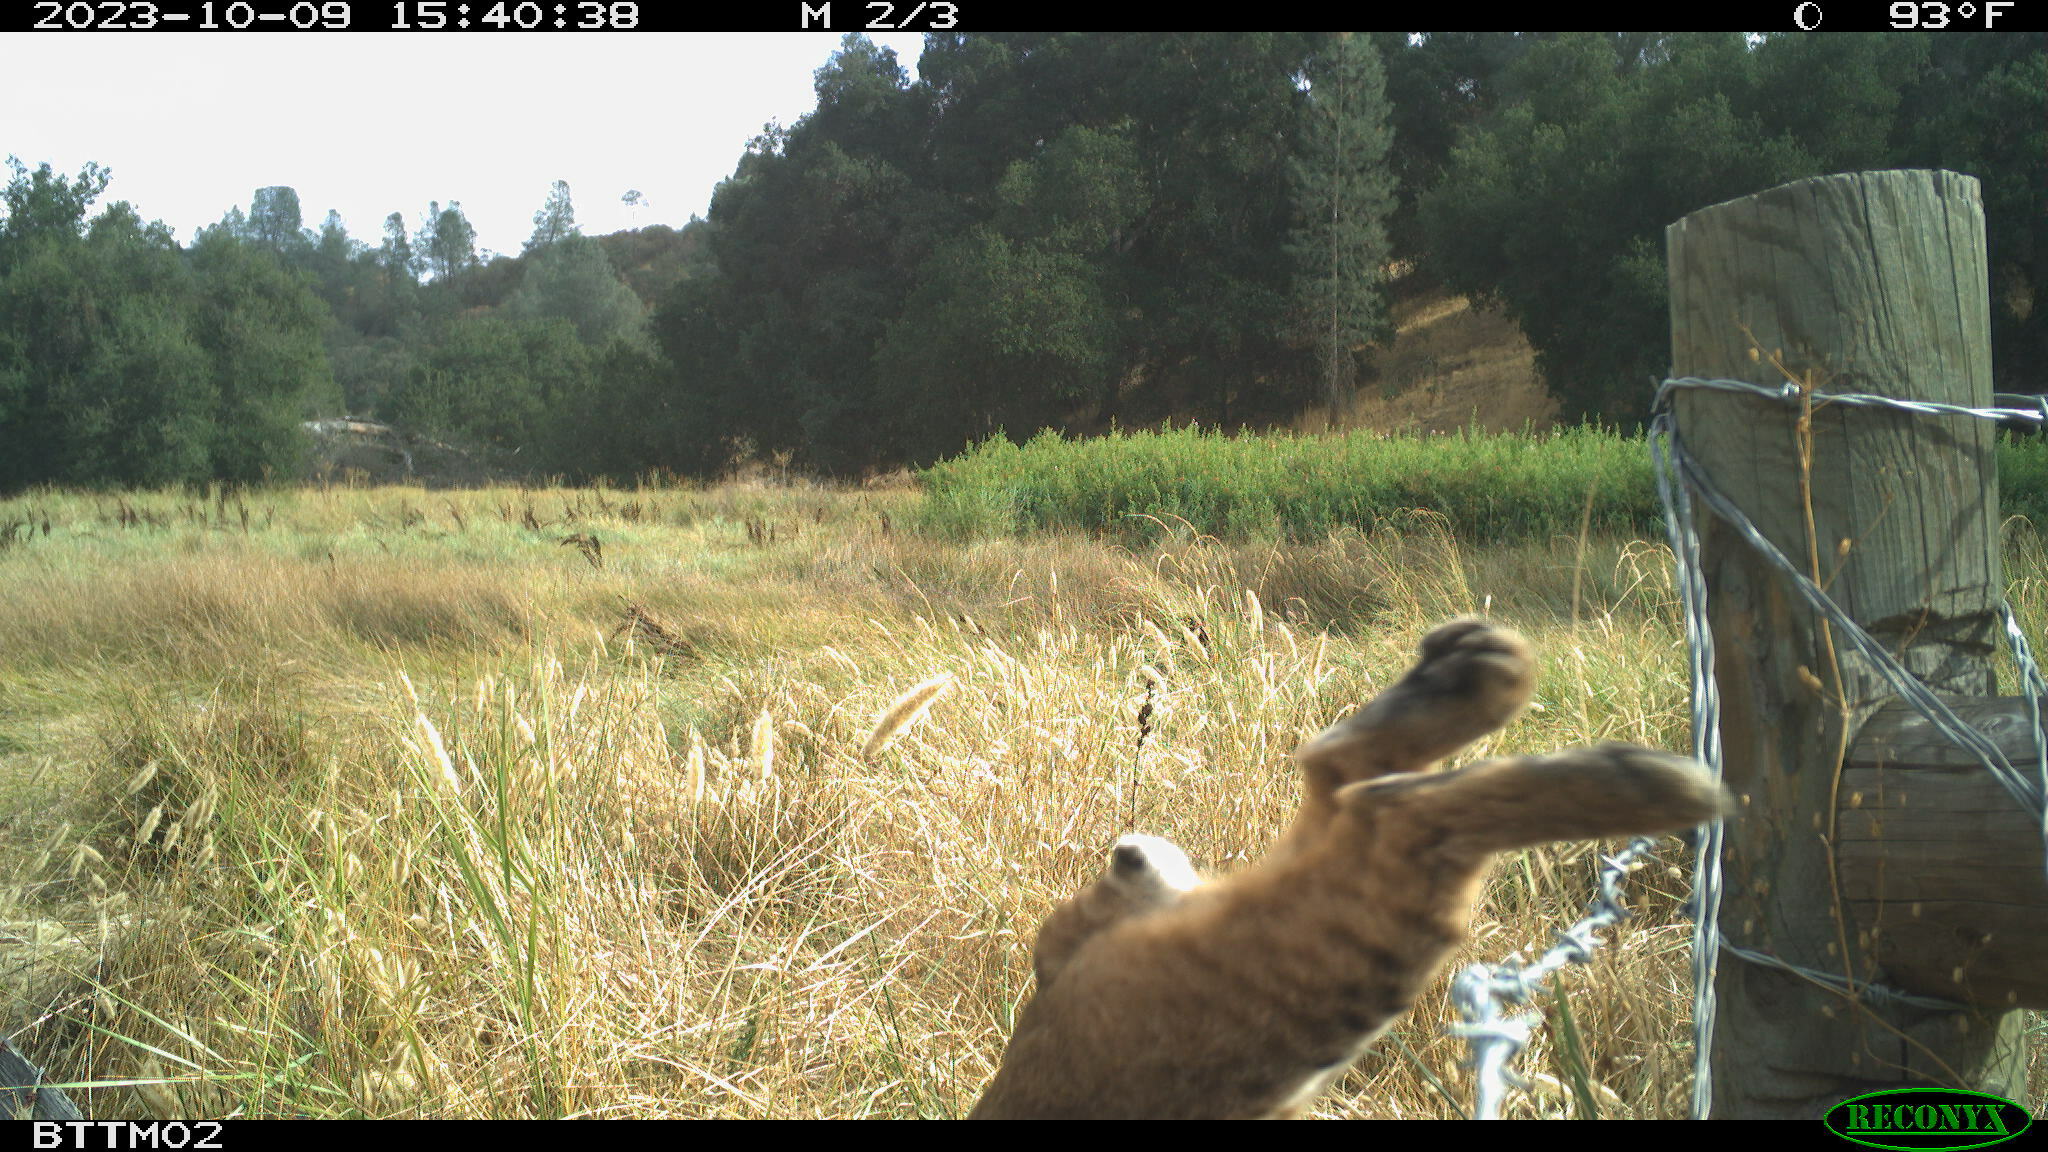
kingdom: Animalia
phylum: Chordata
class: Mammalia
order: Carnivora
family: Felidae
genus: Lynx
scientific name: Lynx rufus
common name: Bobcat
